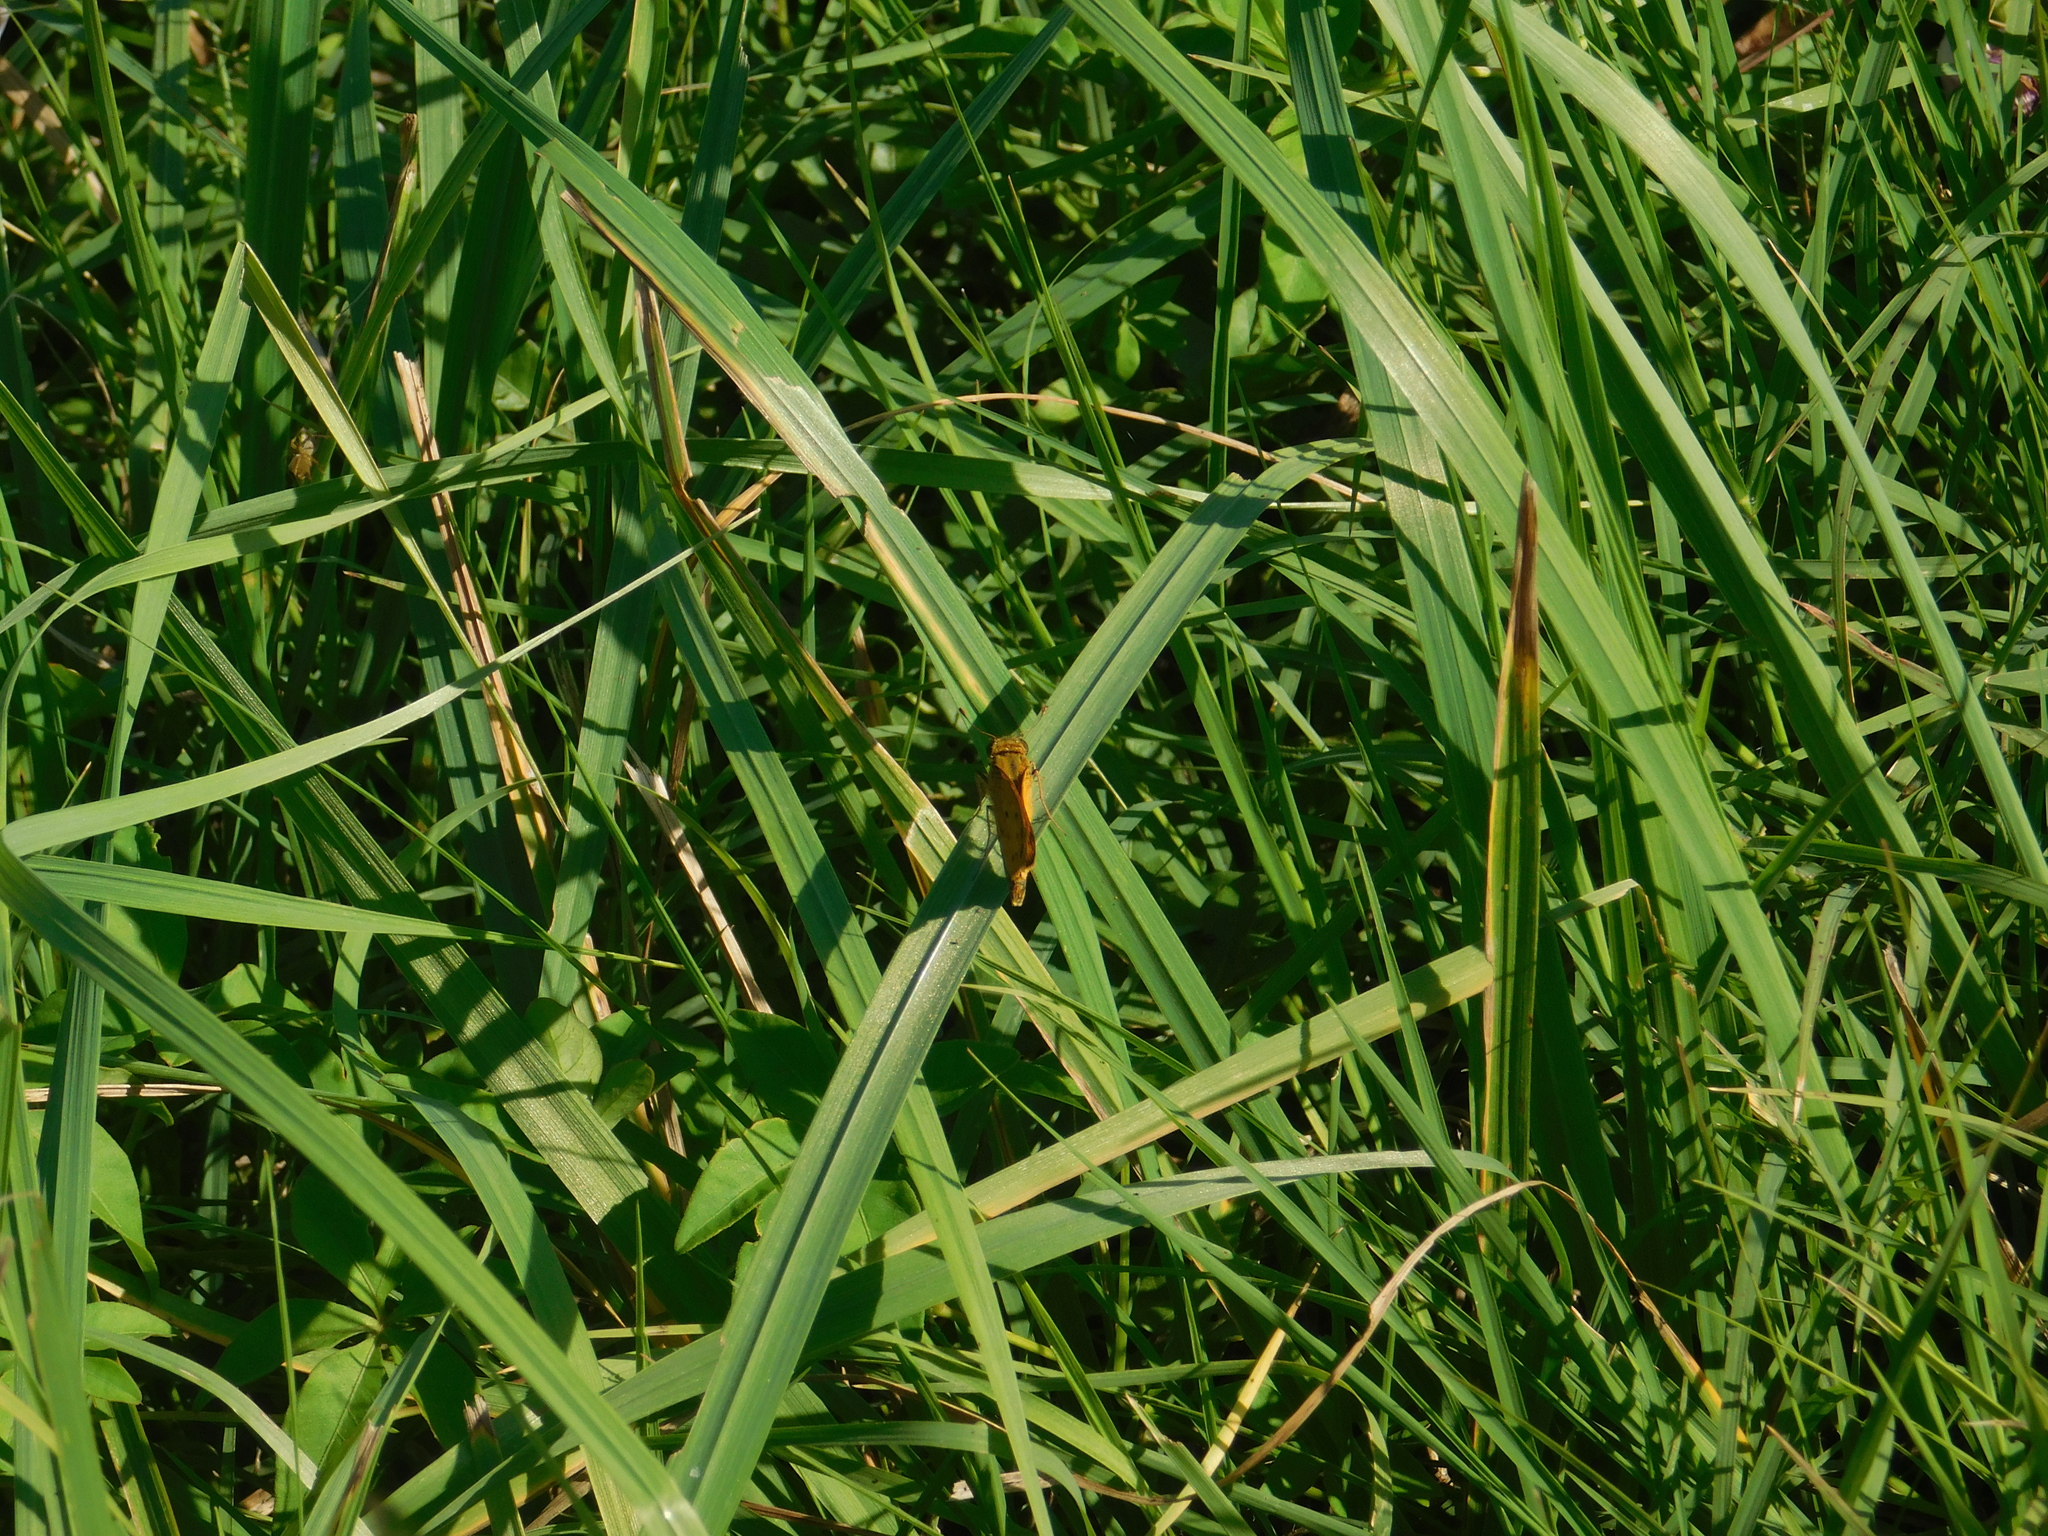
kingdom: Animalia
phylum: Arthropoda
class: Insecta
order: Lepidoptera
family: Hesperiidae
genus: Hylephila
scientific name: Hylephila phyleus
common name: Fiery skipper
